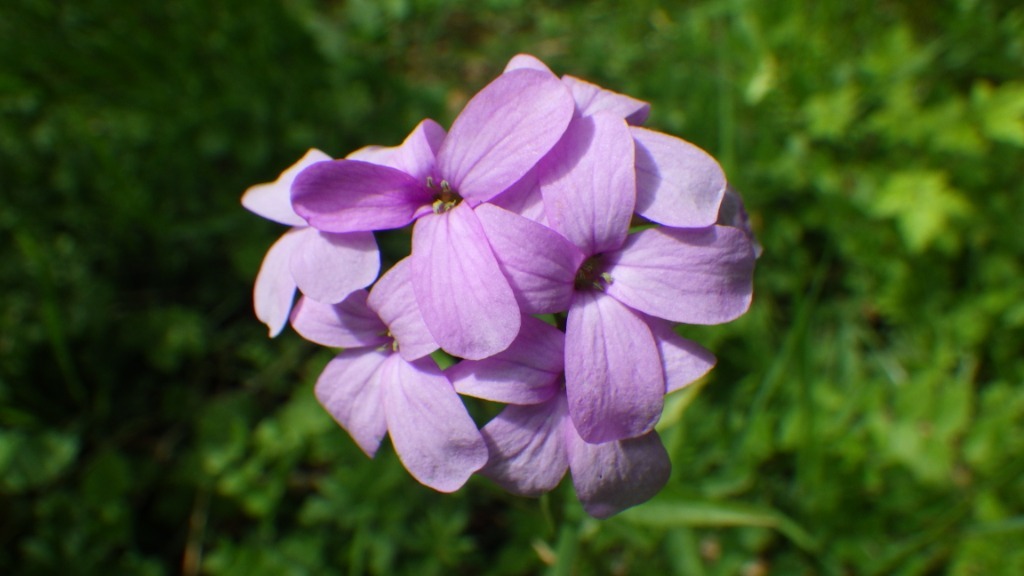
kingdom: Plantae
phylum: Tracheophyta
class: Magnoliopsida
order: Brassicales
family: Brassicaceae
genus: Cardamine
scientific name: Cardamine bulbifera
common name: Coralroot bittercress
